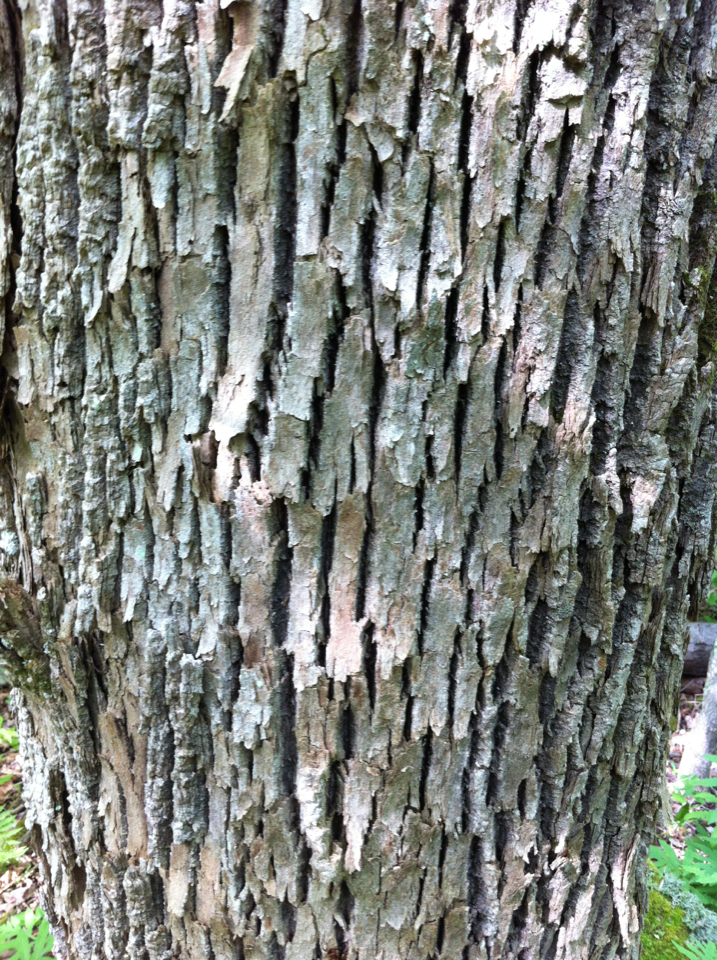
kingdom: Plantae
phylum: Tracheophyta
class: Magnoliopsida
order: Lamiales
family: Oleaceae
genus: Fraxinus
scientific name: Fraxinus americana
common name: White ash
